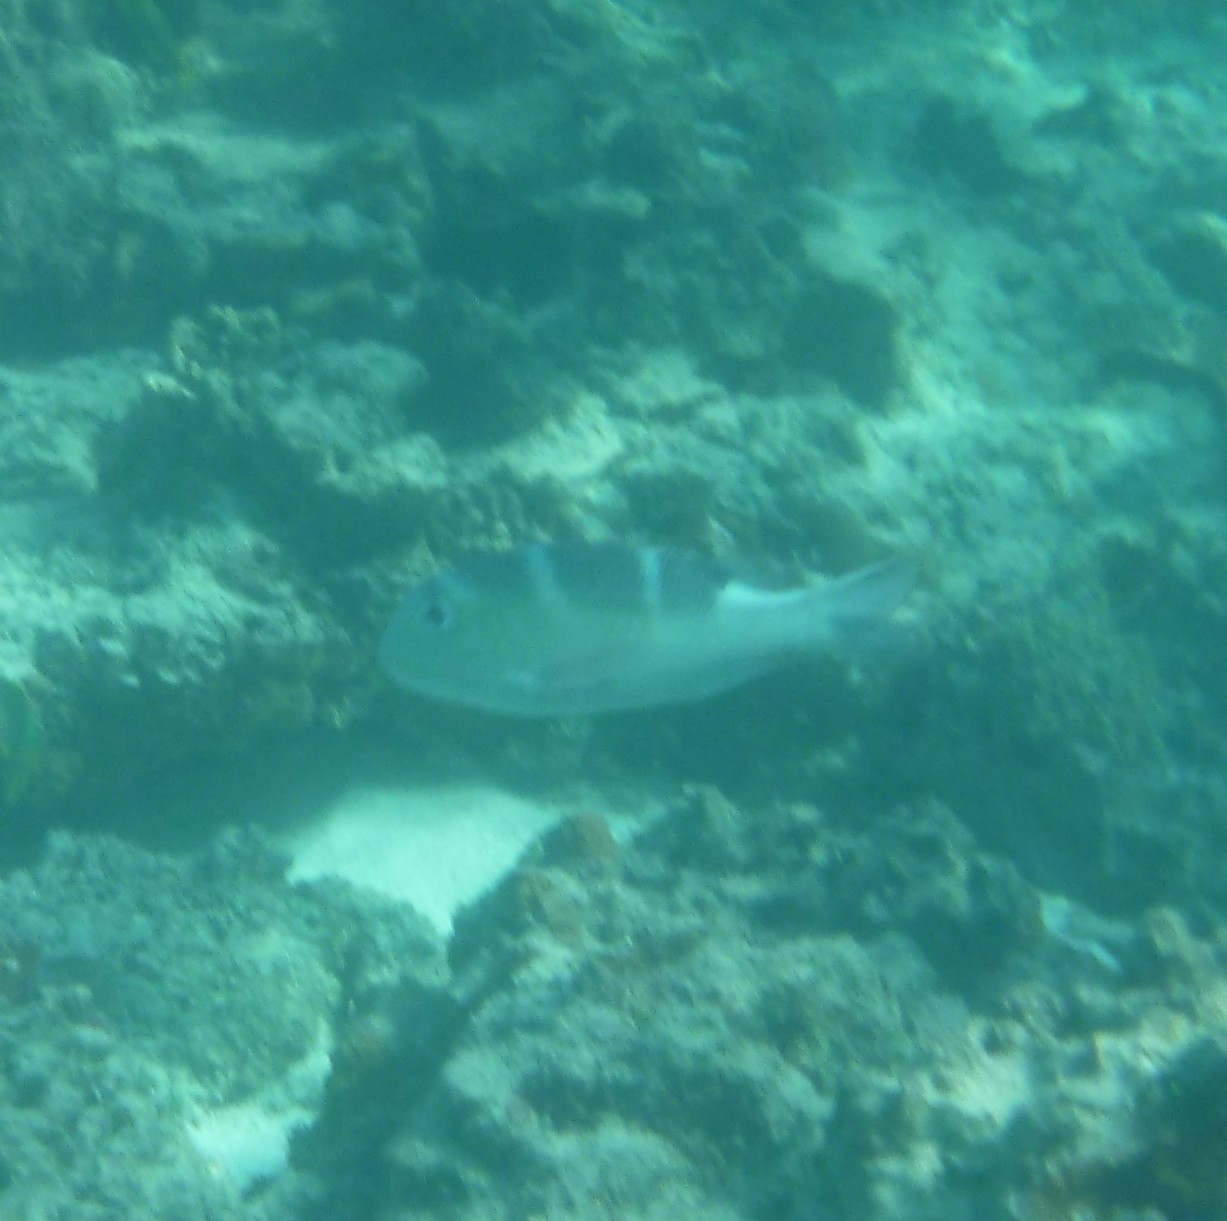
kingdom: Animalia
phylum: Chordata
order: Perciformes
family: Lethrinidae
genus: Monotaxis
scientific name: Monotaxis grandoculis
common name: Bigeye emperor
